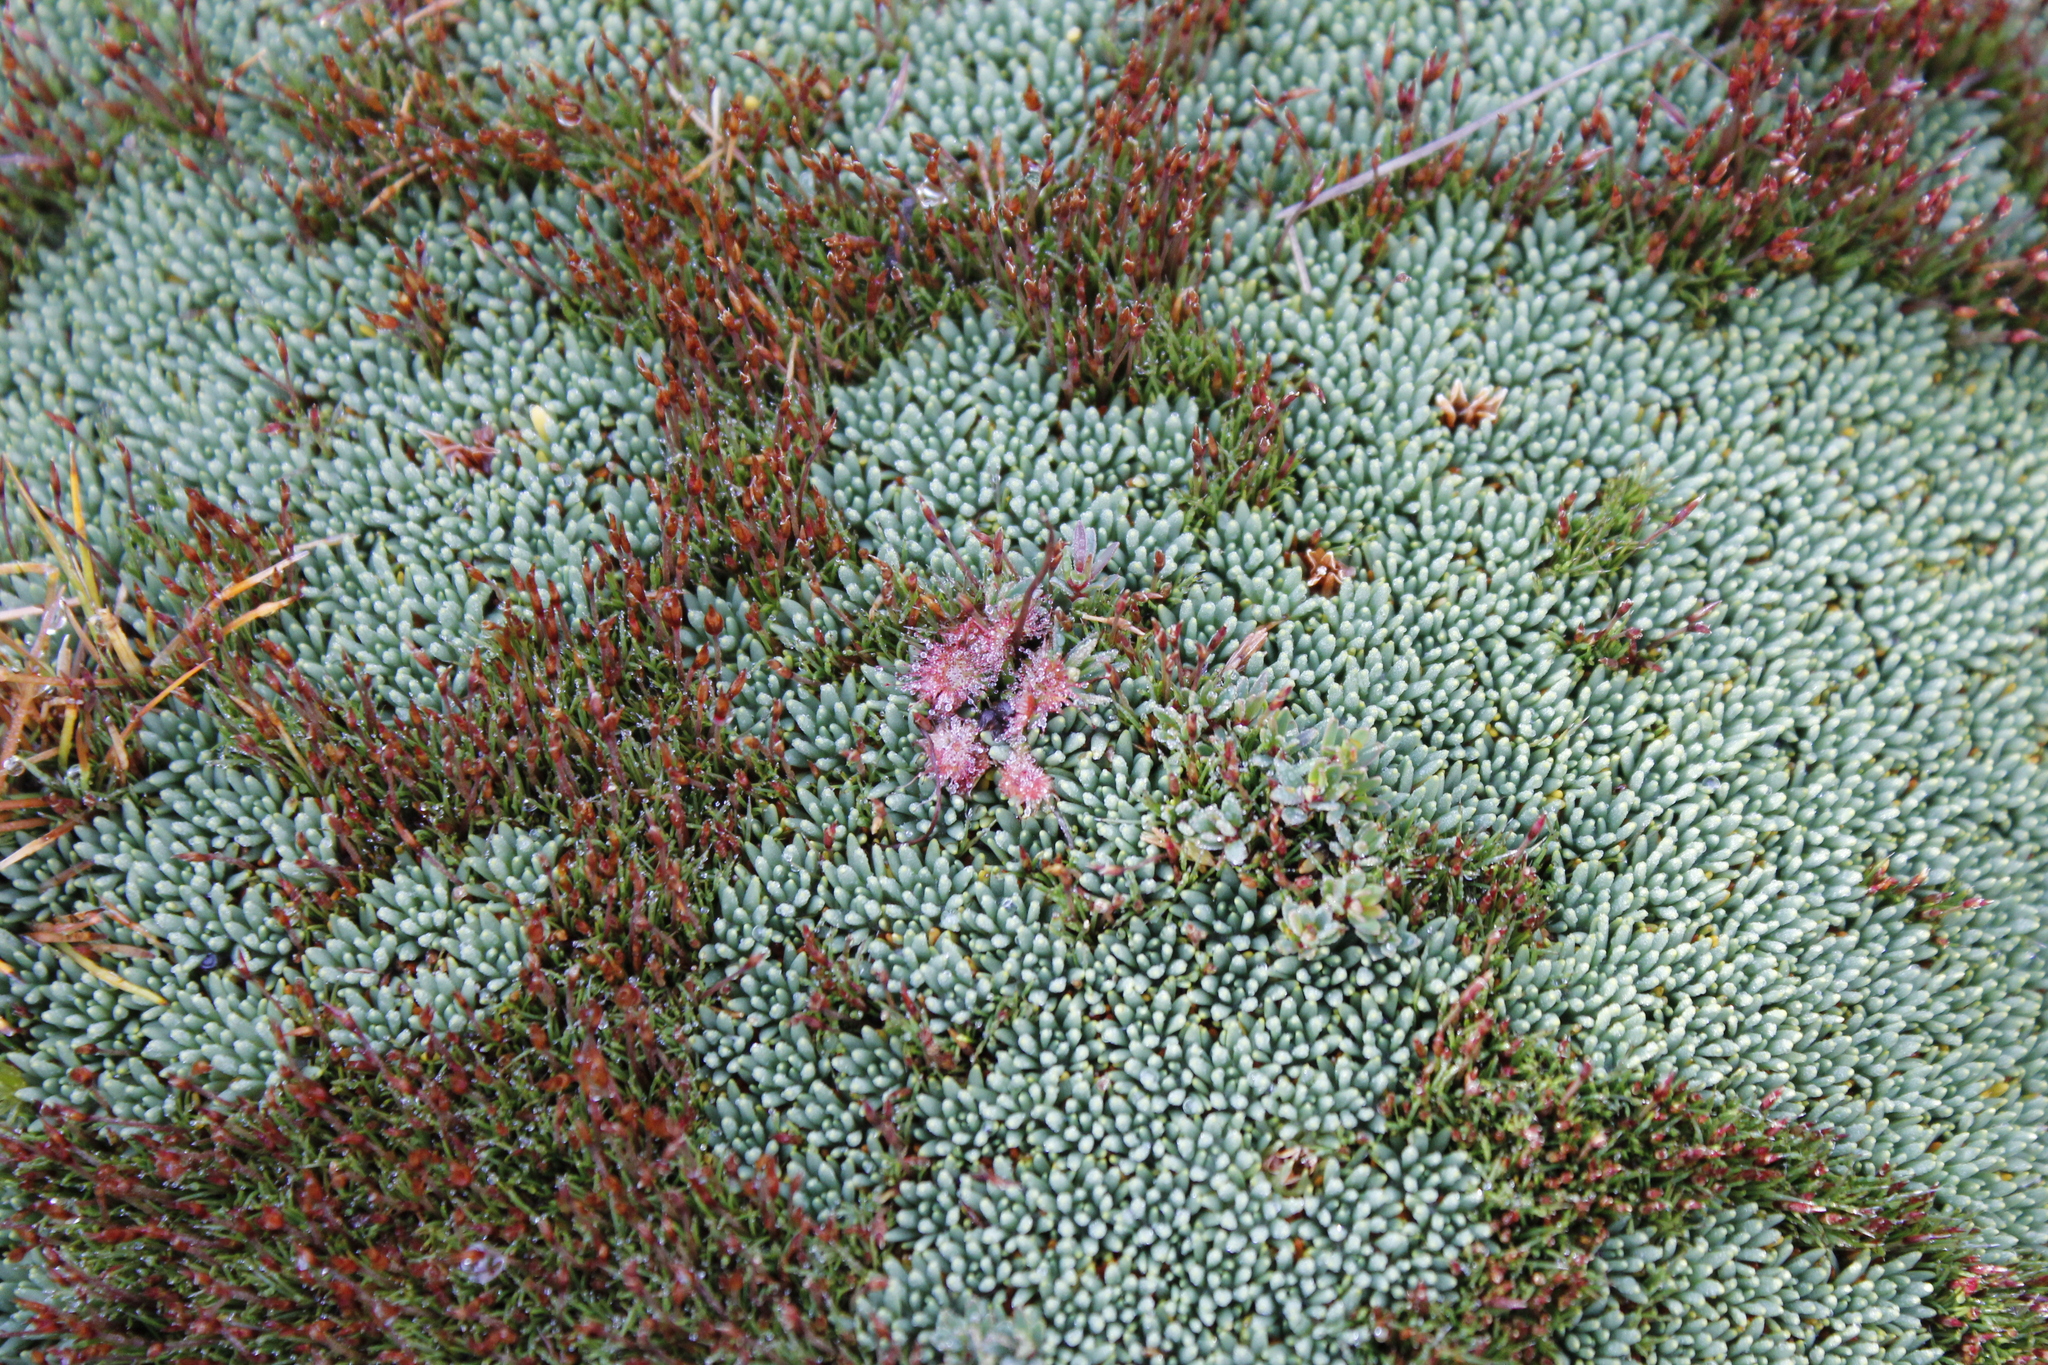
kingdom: Plantae
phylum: Tracheophyta
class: Magnoliopsida
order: Caryophyllales
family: Droseraceae
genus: Drosera
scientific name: Drosera stenopetala
